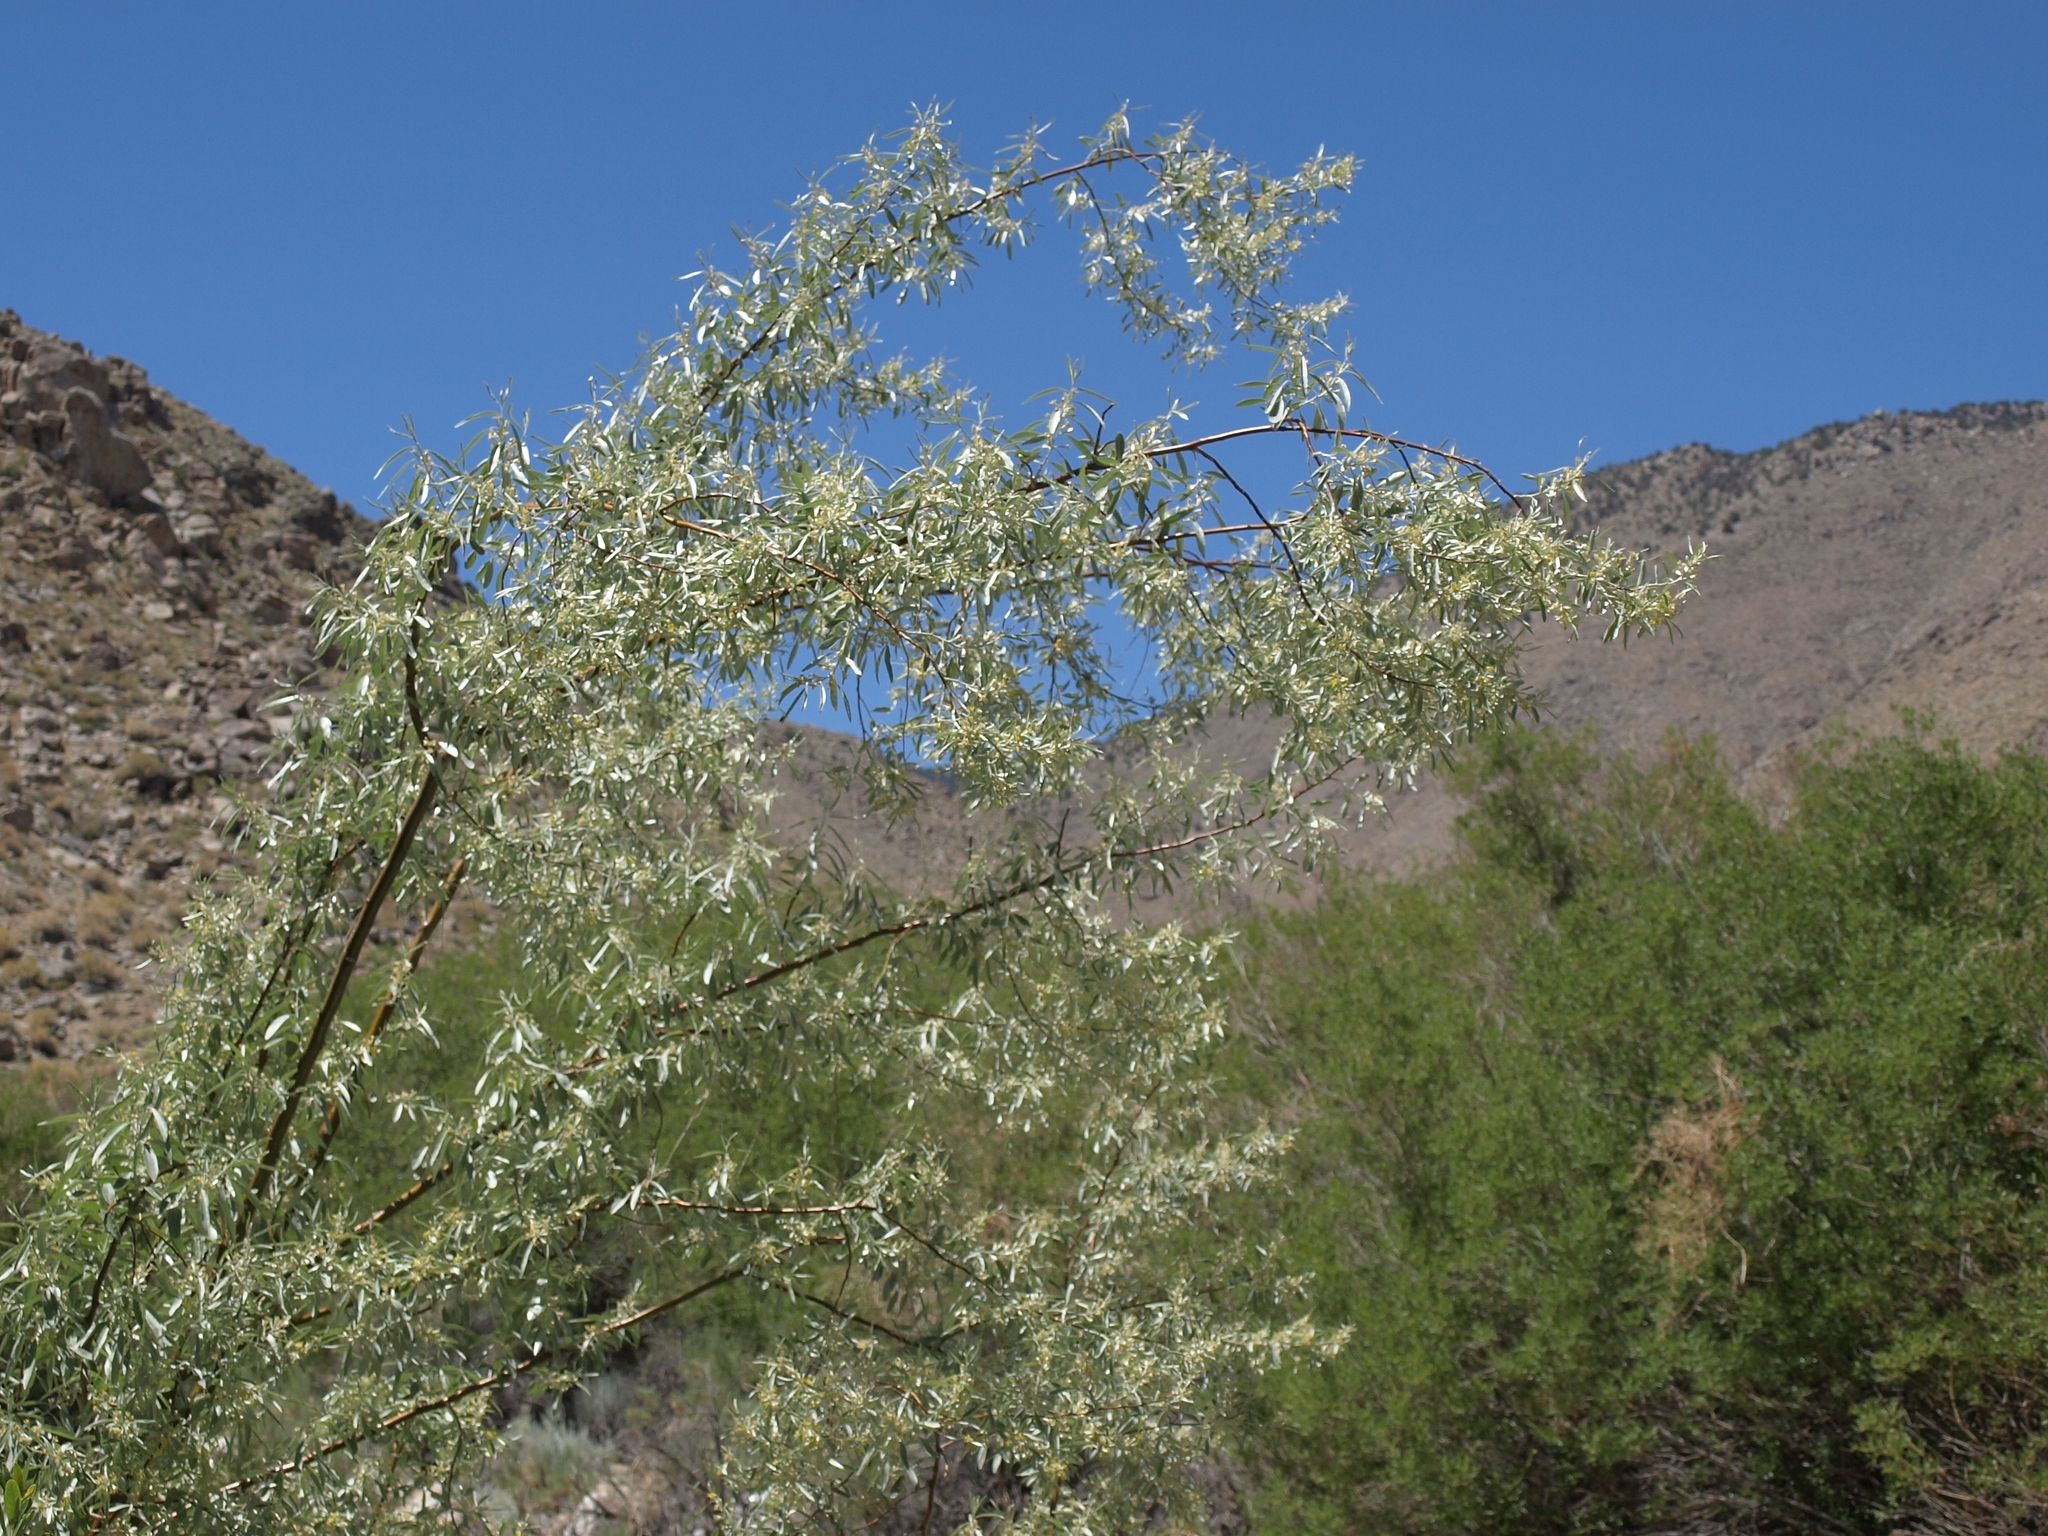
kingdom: Plantae
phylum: Tracheophyta
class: Magnoliopsida
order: Rosales
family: Elaeagnaceae
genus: Elaeagnus
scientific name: Elaeagnus angustifolia
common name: Russian olive
